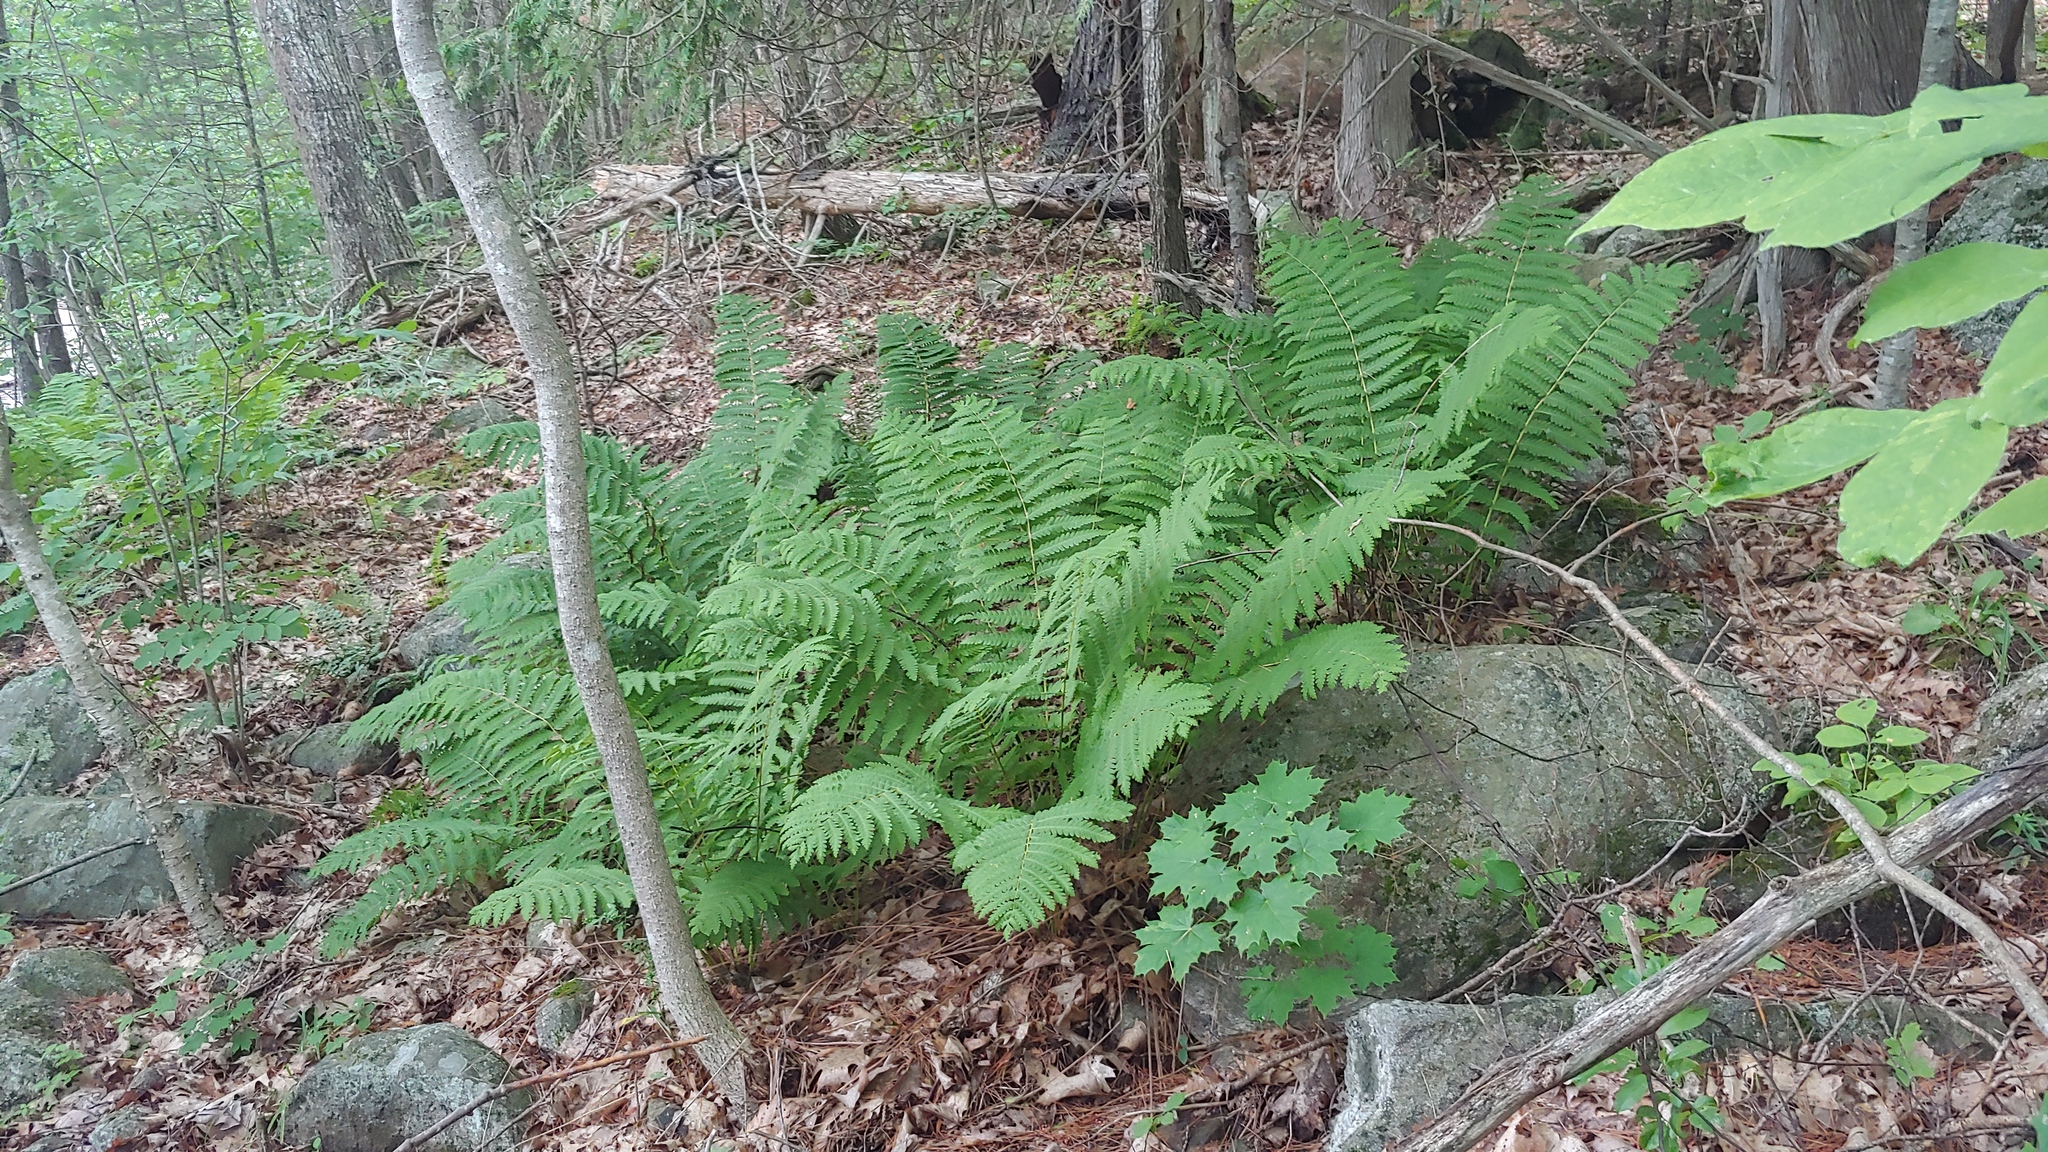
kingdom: Plantae
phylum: Tracheophyta
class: Polypodiopsida
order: Osmundales
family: Osmundaceae
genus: Claytosmunda
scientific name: Claytosmunda claytoniana
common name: Clayton's fern
